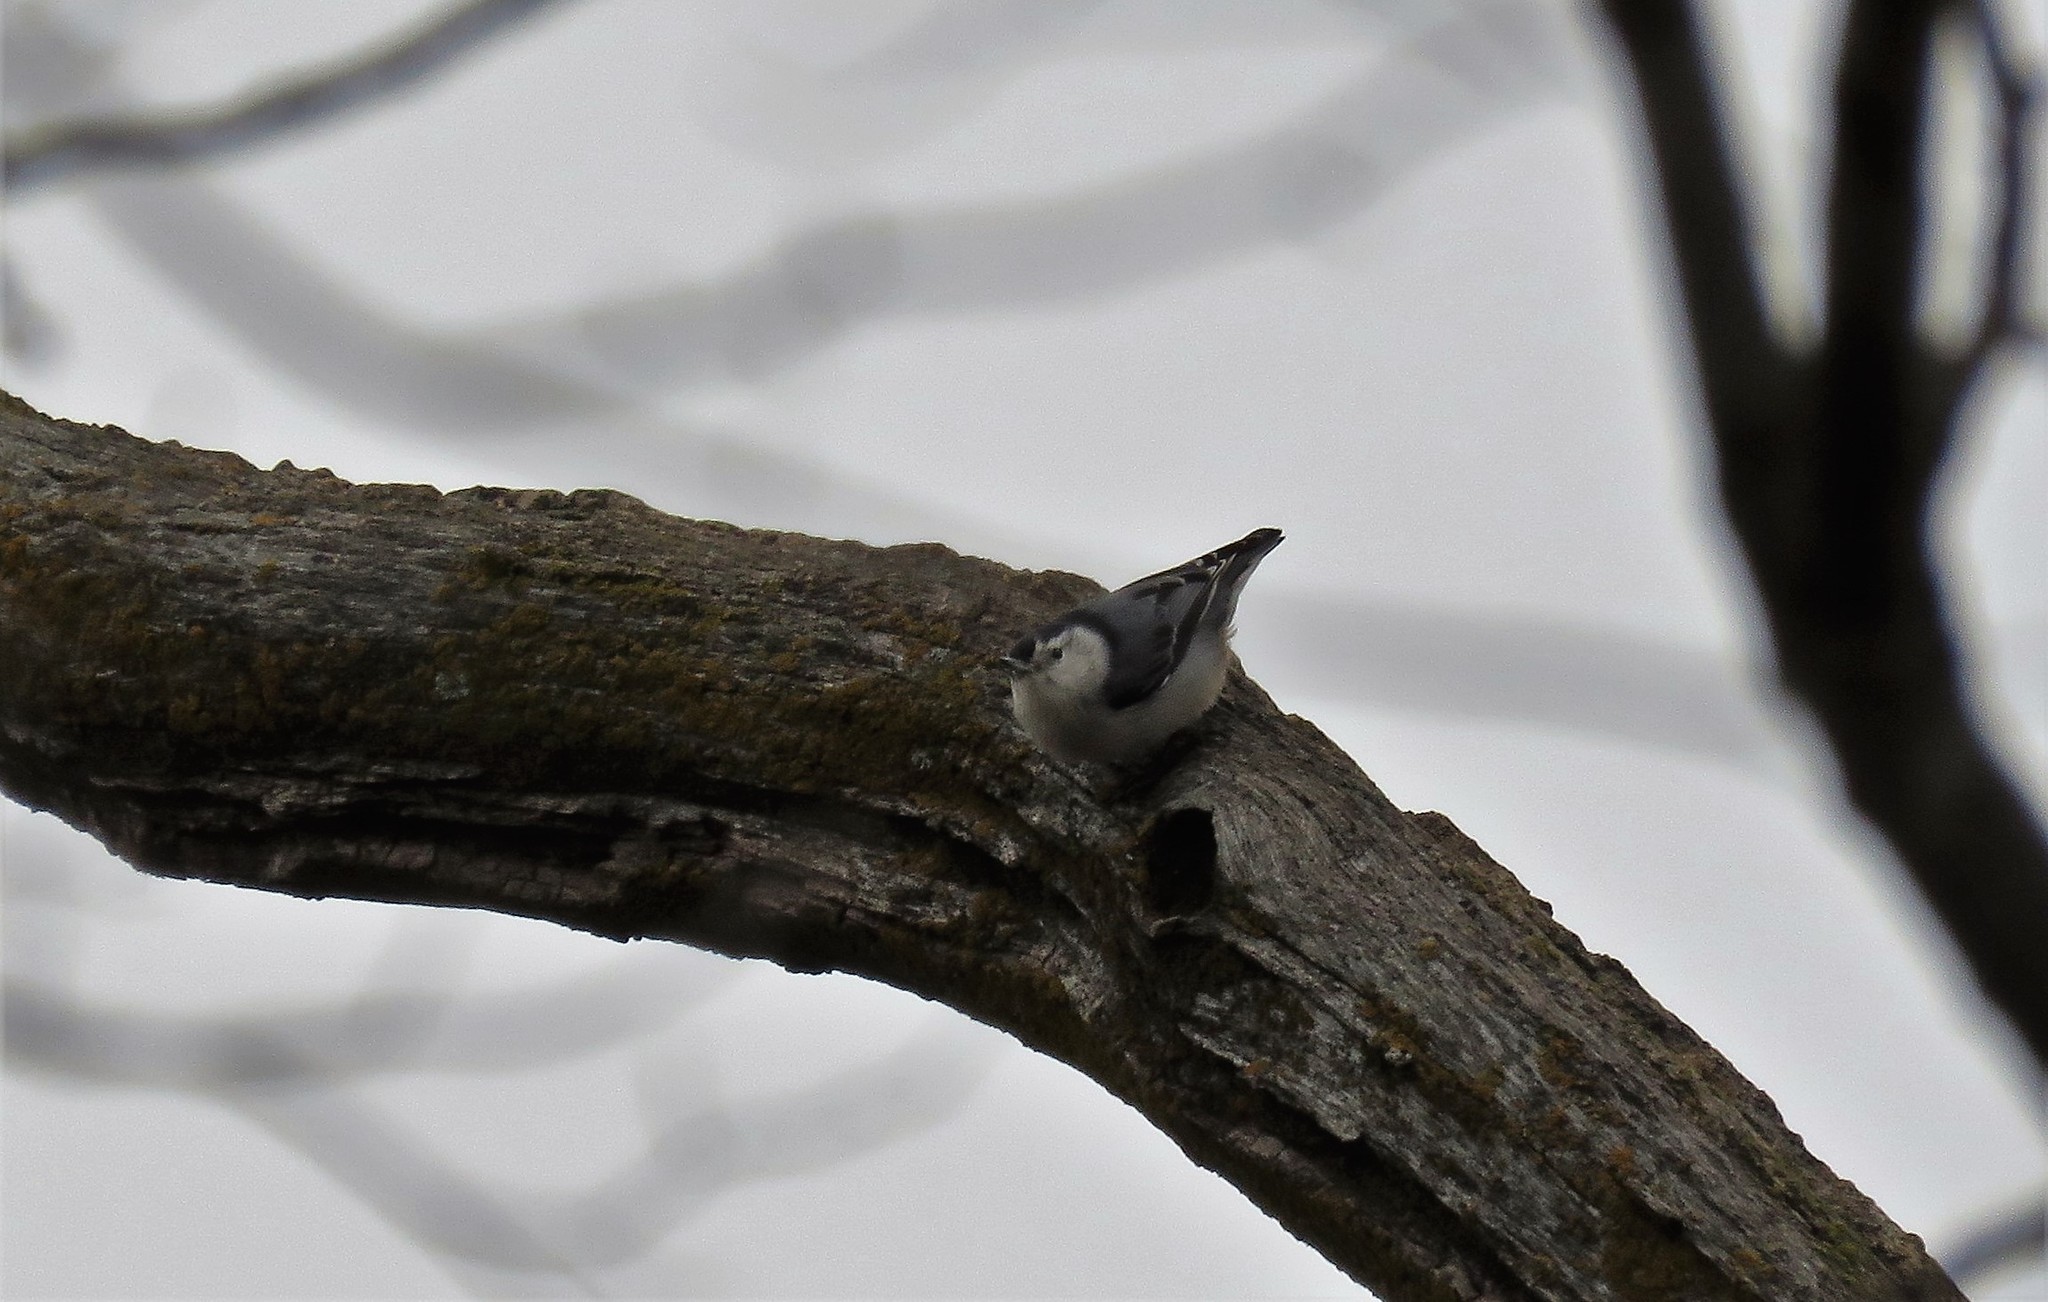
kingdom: Animalia
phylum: Chordata
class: Aves
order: Passeriformes
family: Sittidae
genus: Sitta
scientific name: Sitta carolinensis
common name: White-breasted nuthatch
